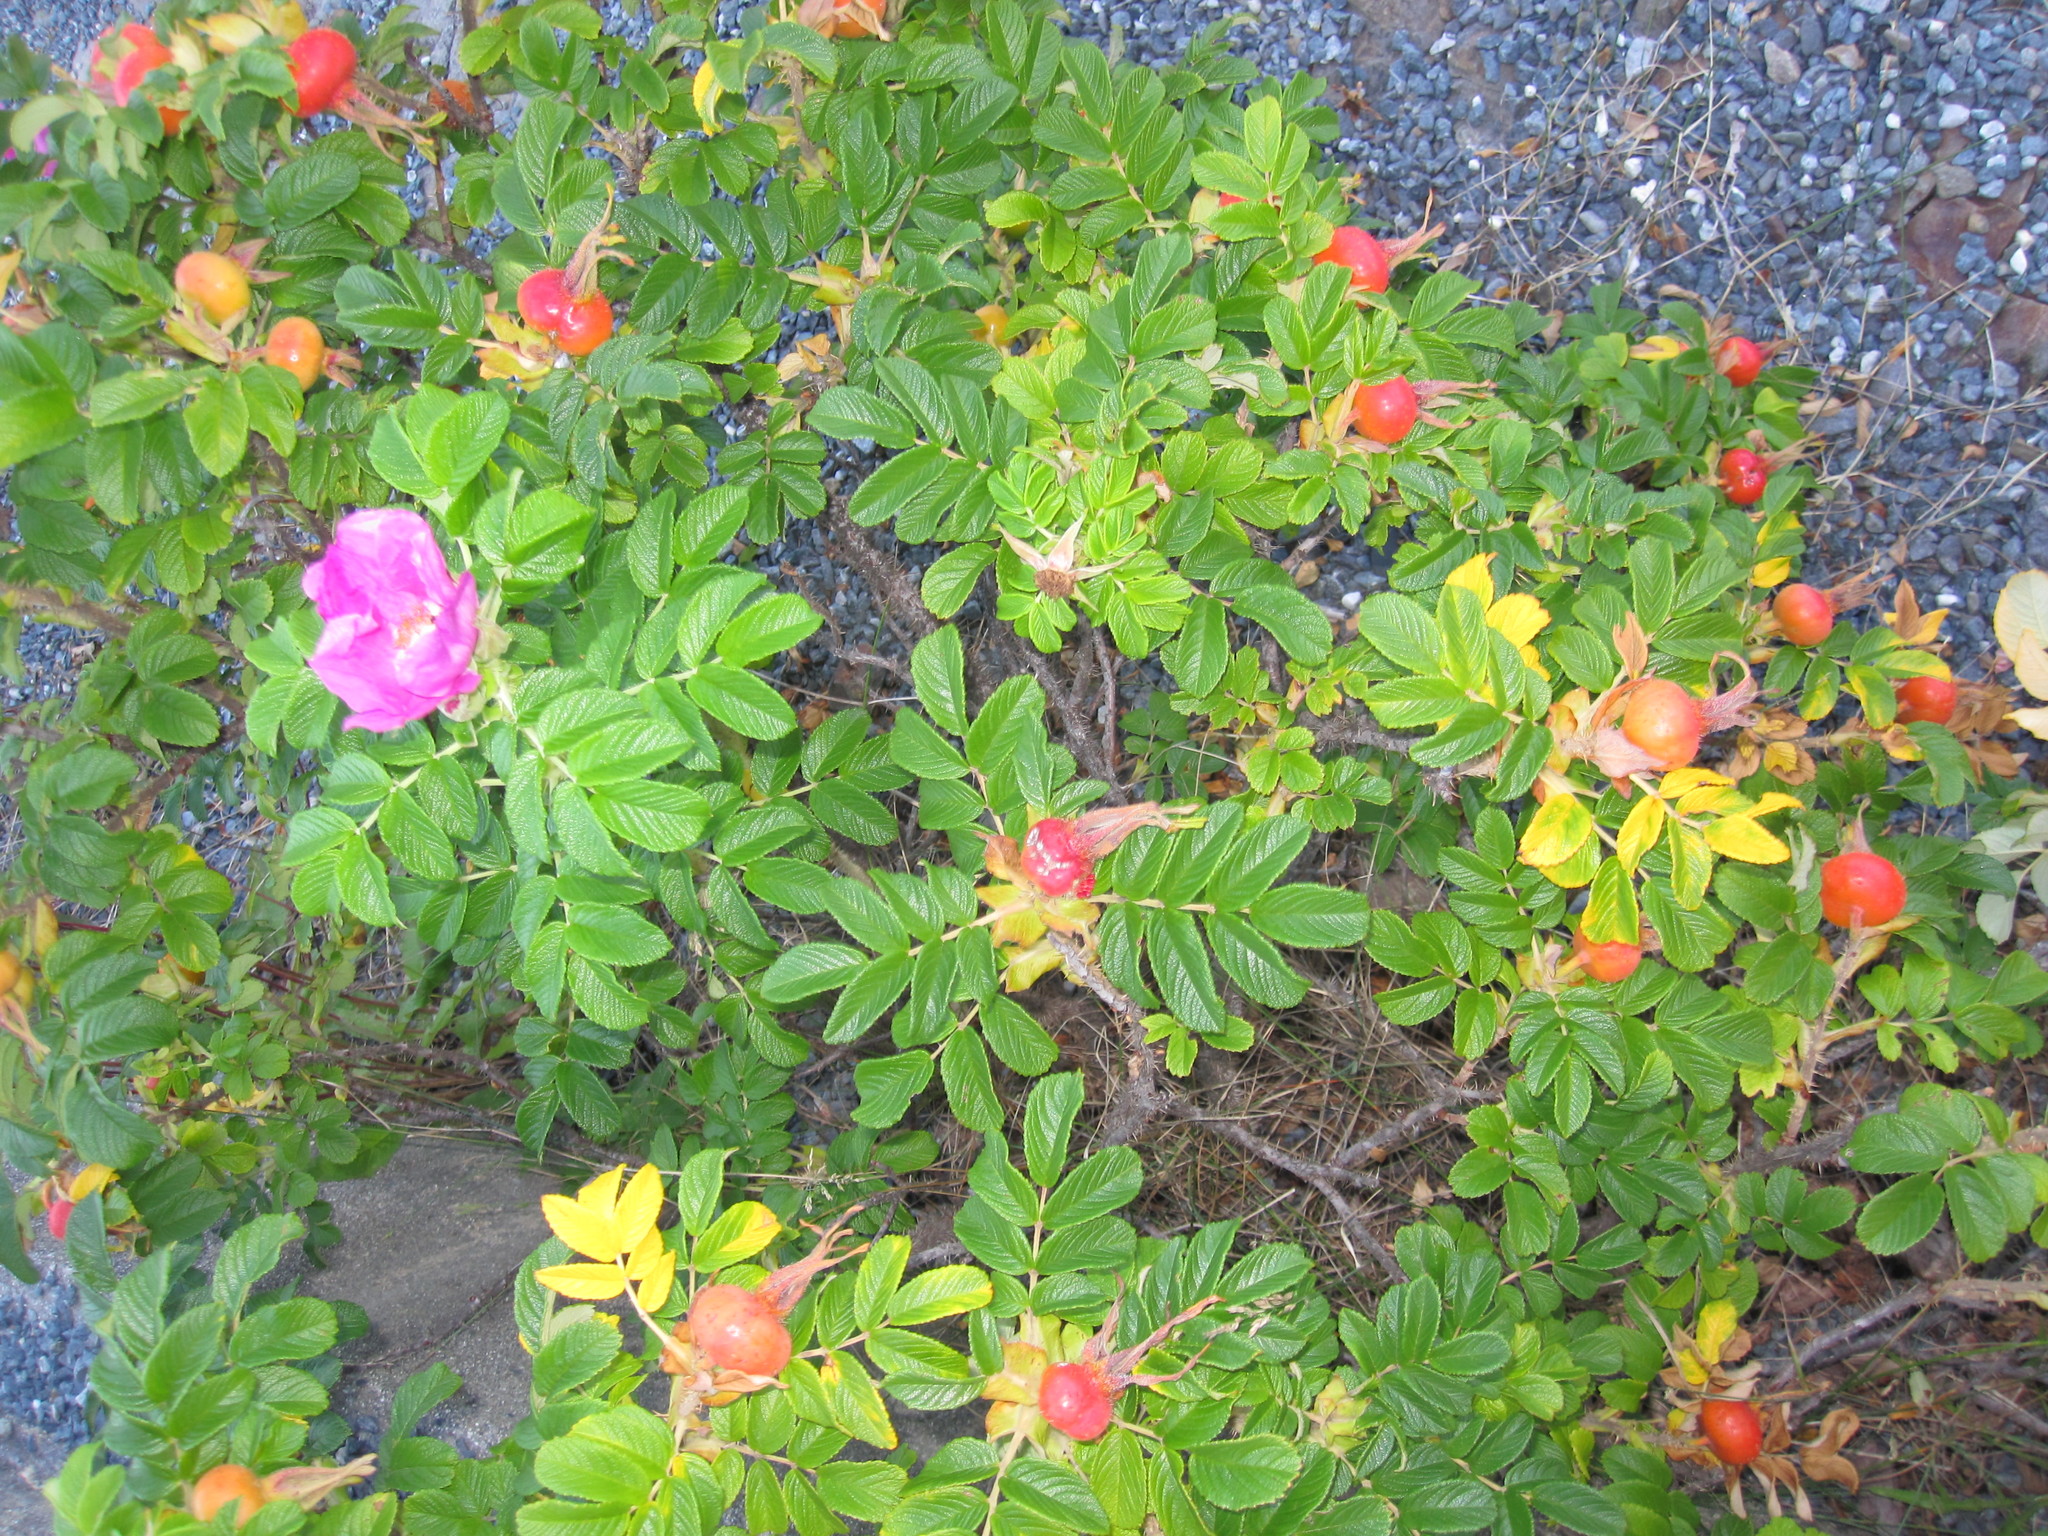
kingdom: Plantae
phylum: Tracheophyta
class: Magnoliopsida
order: Rosales
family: Rosaceae
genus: Rosa
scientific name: Rosa rugosa
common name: Japanese rose
